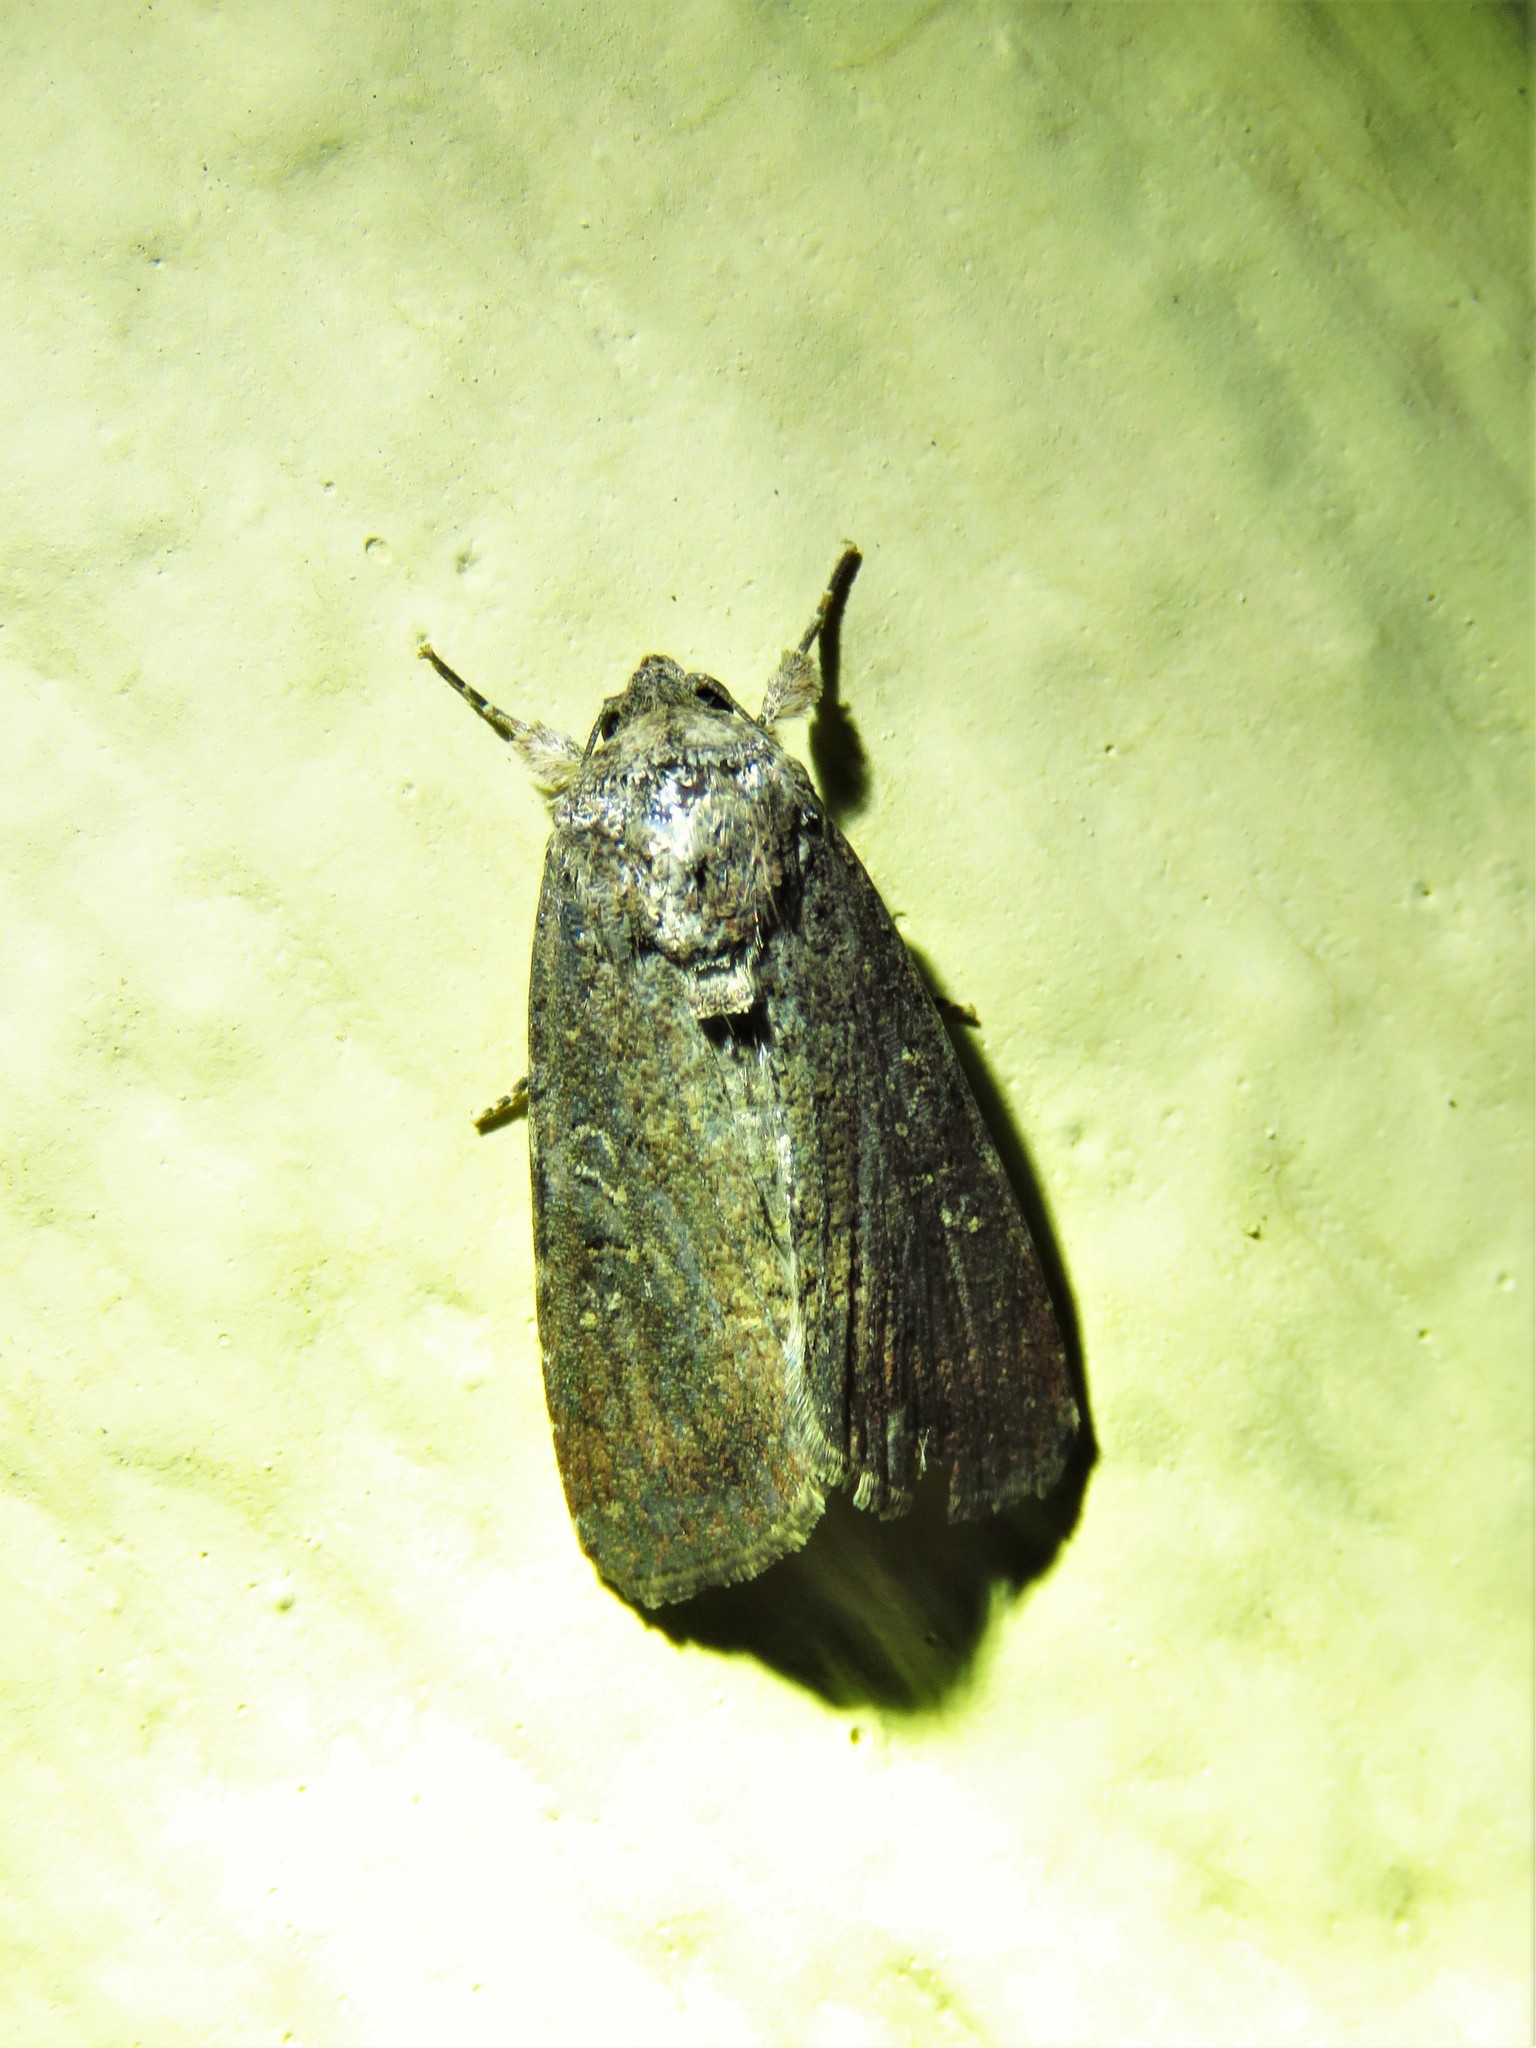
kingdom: Animalia
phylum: Arthropoda
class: Insecta
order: Lepidoptera
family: Noctuidae
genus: Spodoptera
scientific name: Spodoptera exigua
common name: Beet armyworm
